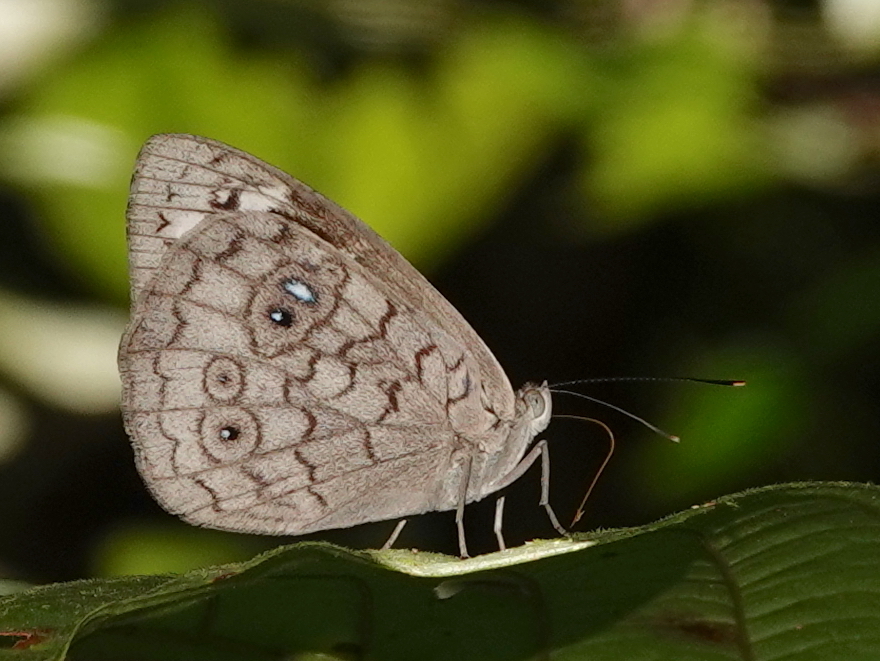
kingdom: Animalia
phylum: Arthropoda
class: Insecta
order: Lepidoptera
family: Nymphalidae
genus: Eunica
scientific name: Eunica monima
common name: Dingy purplewing
